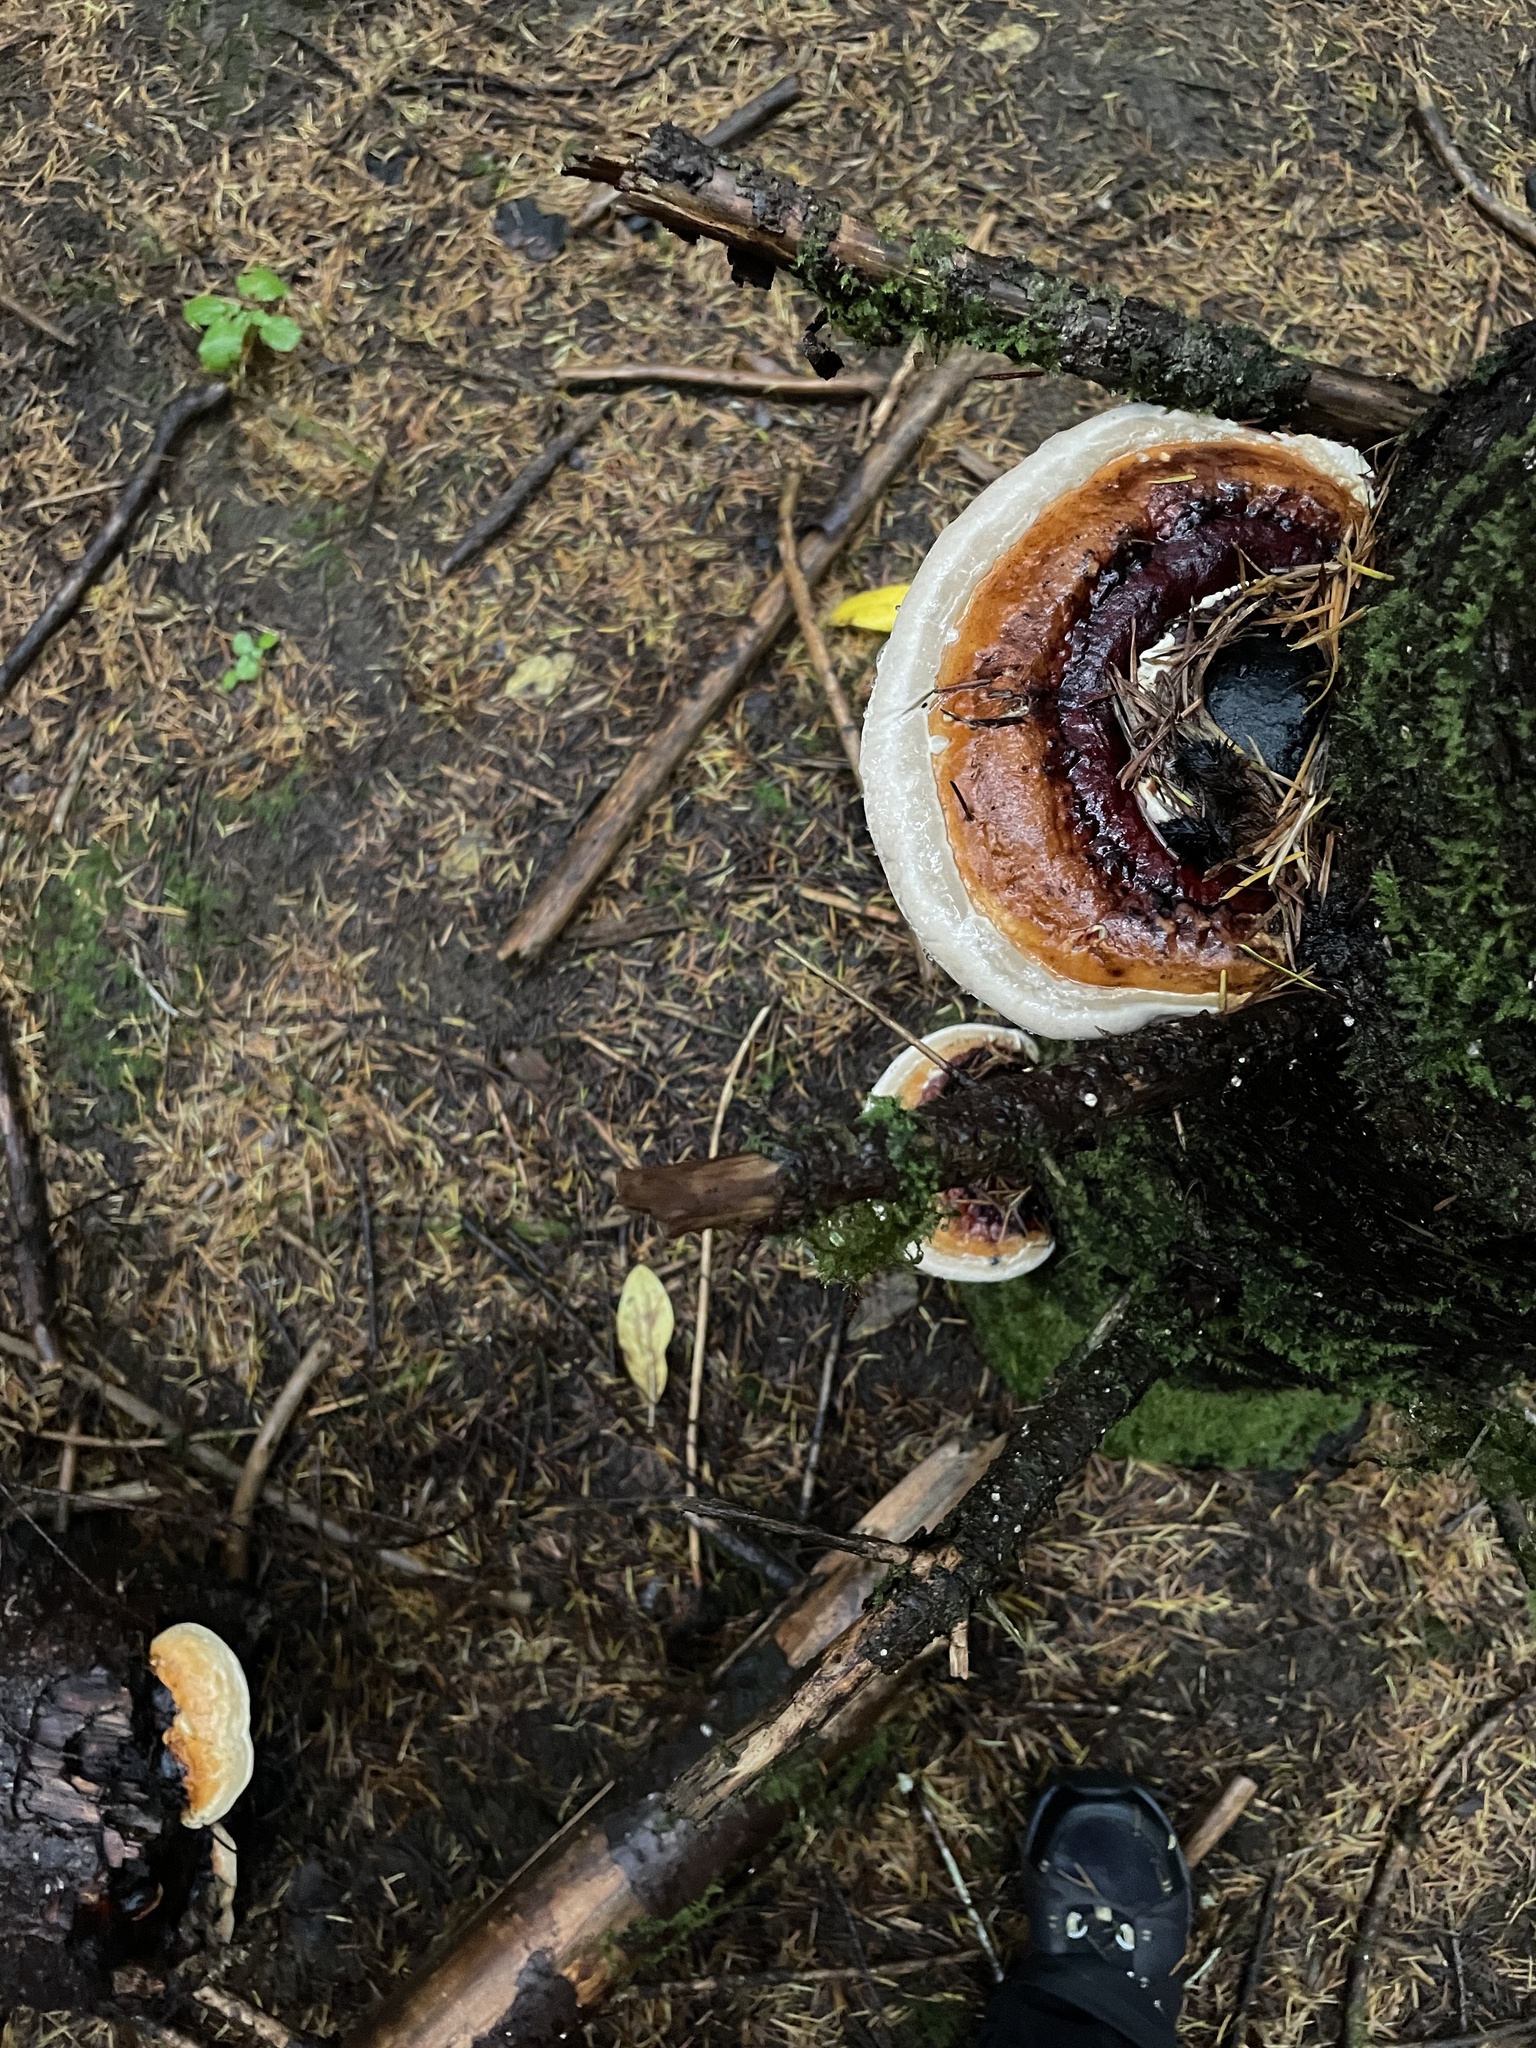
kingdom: Fungi
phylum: Basidiomycota
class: Agaricomycetes
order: Polyporales
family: Fomitopsidaceae
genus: Fomitopsis
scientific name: Fomitopsis mounceae
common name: Northern red belt
